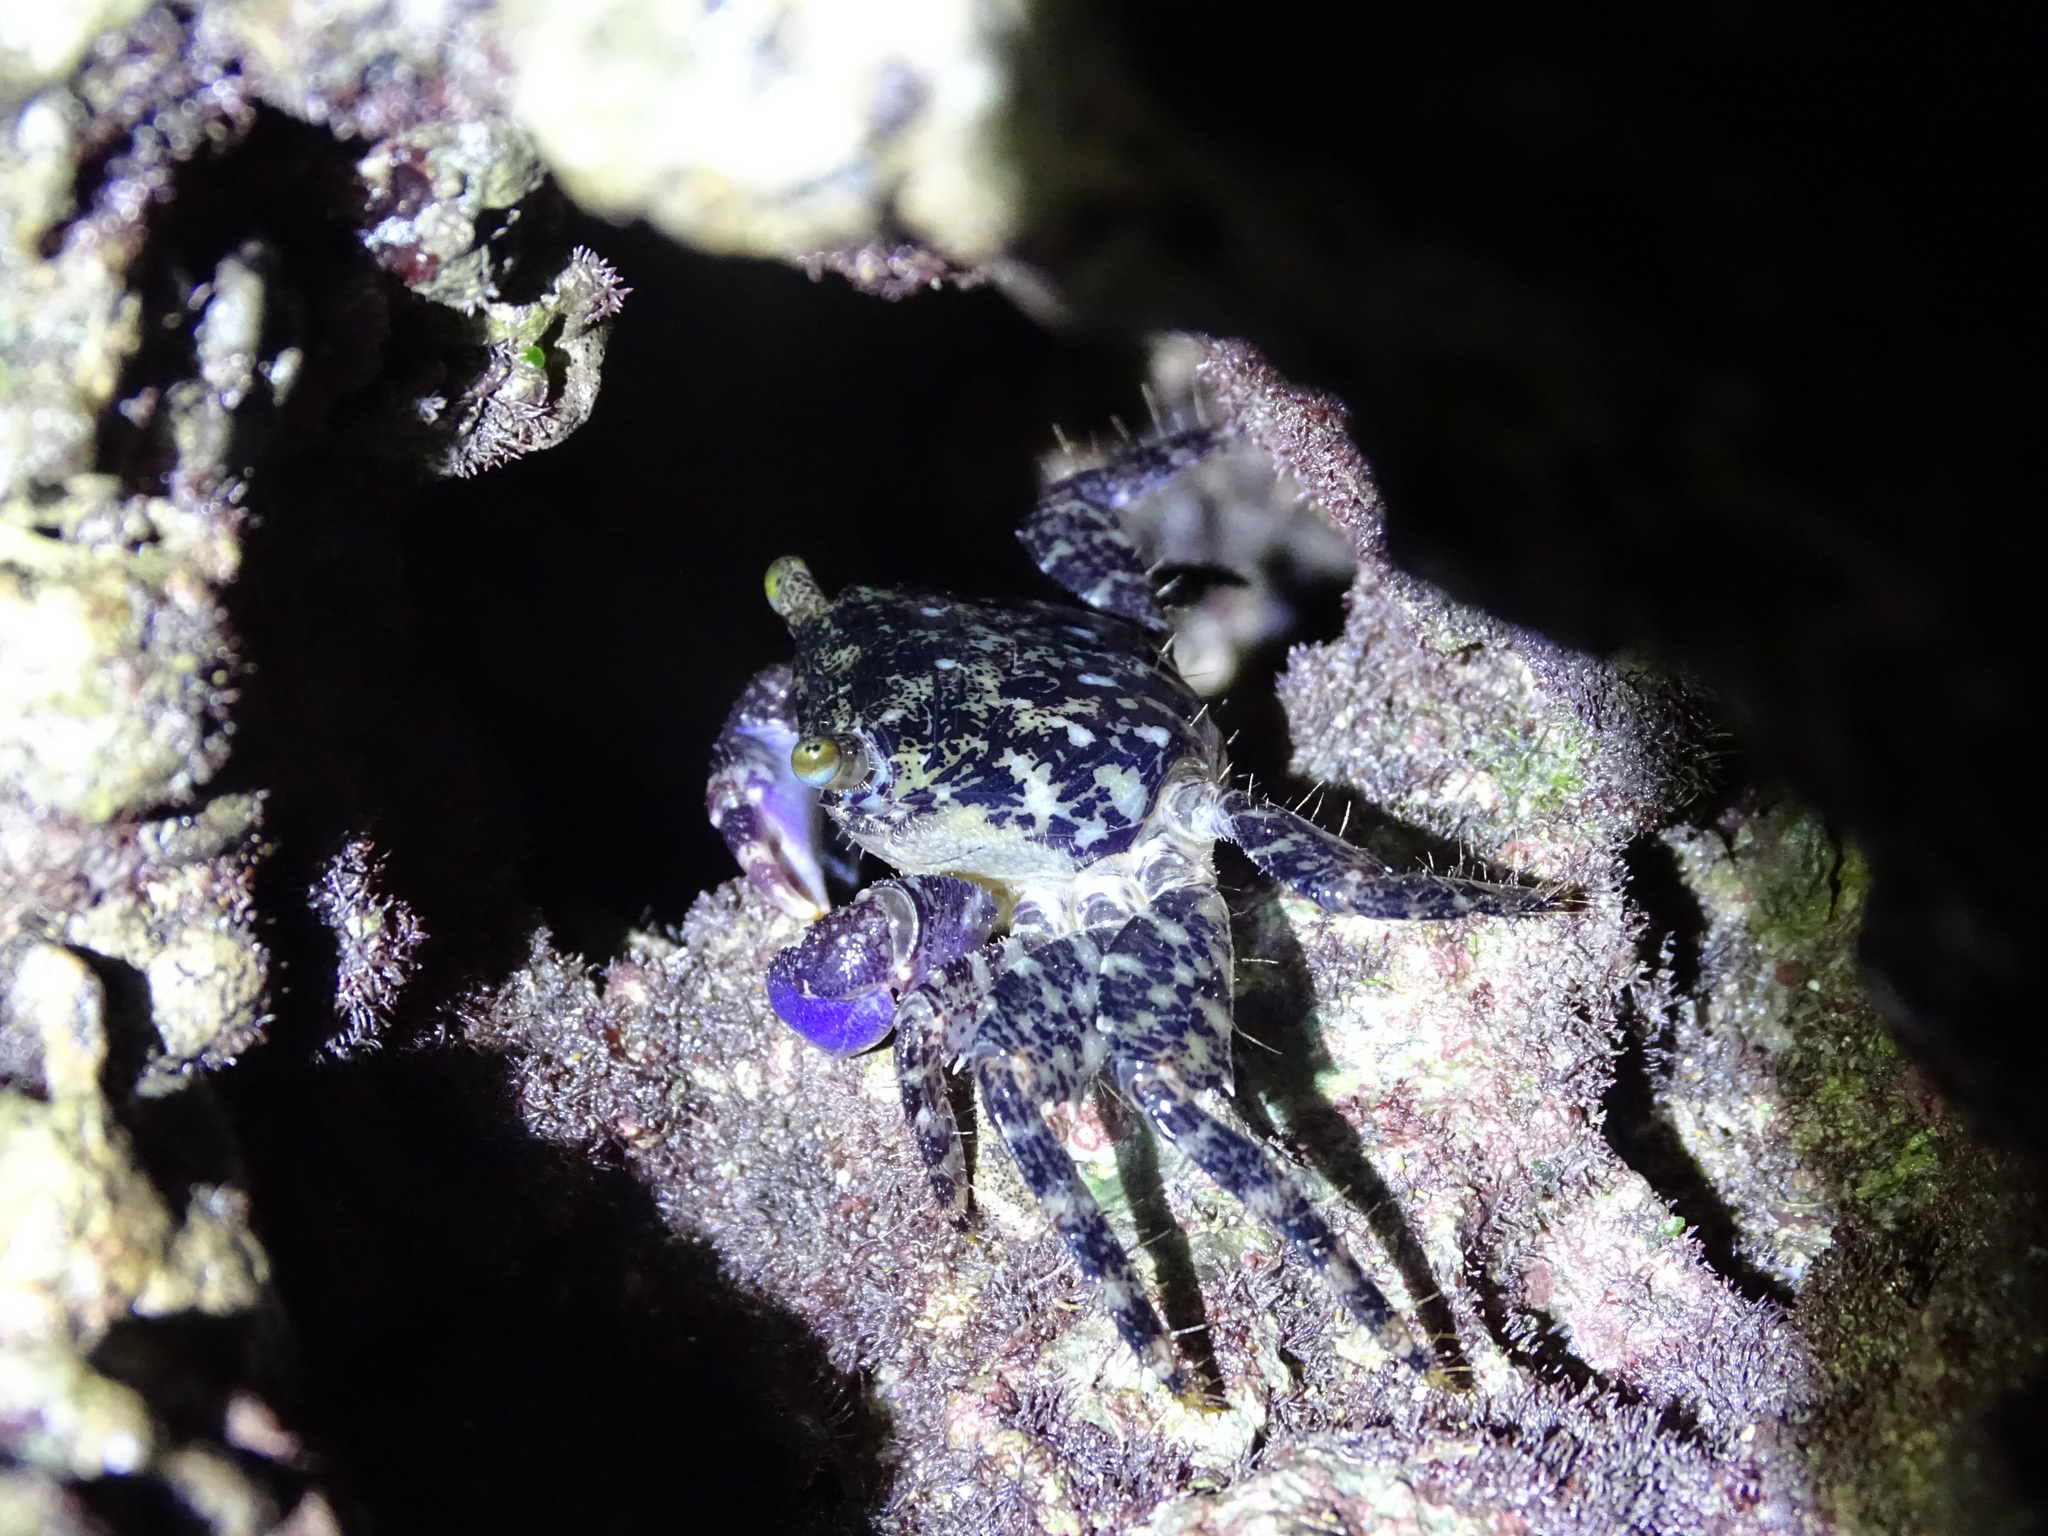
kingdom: Animalia
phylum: Arthropoda
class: Malacostraca
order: Decapoda
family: Grapsidae
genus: Metopograpsus
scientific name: Metopograpsus thukuhar
